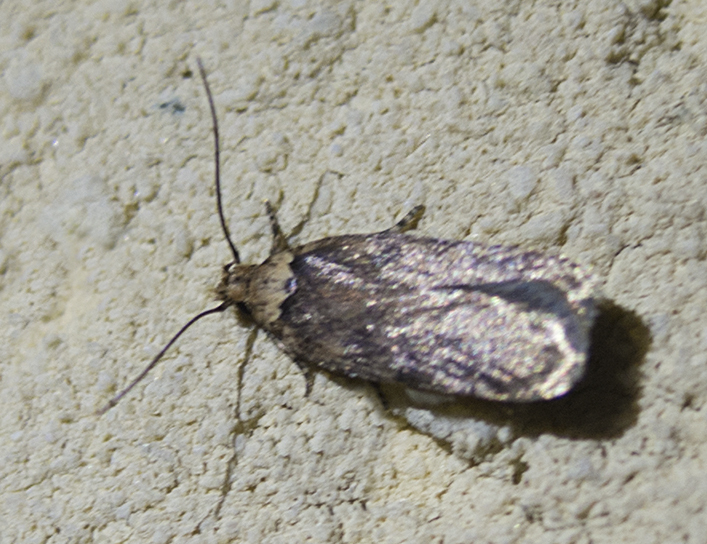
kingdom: Animalia
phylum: Arthropoda
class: Insecta
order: Lepidoptera
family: Depressariidae
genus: Depressaria
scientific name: Depressaria depressana
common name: Lost flat-body
